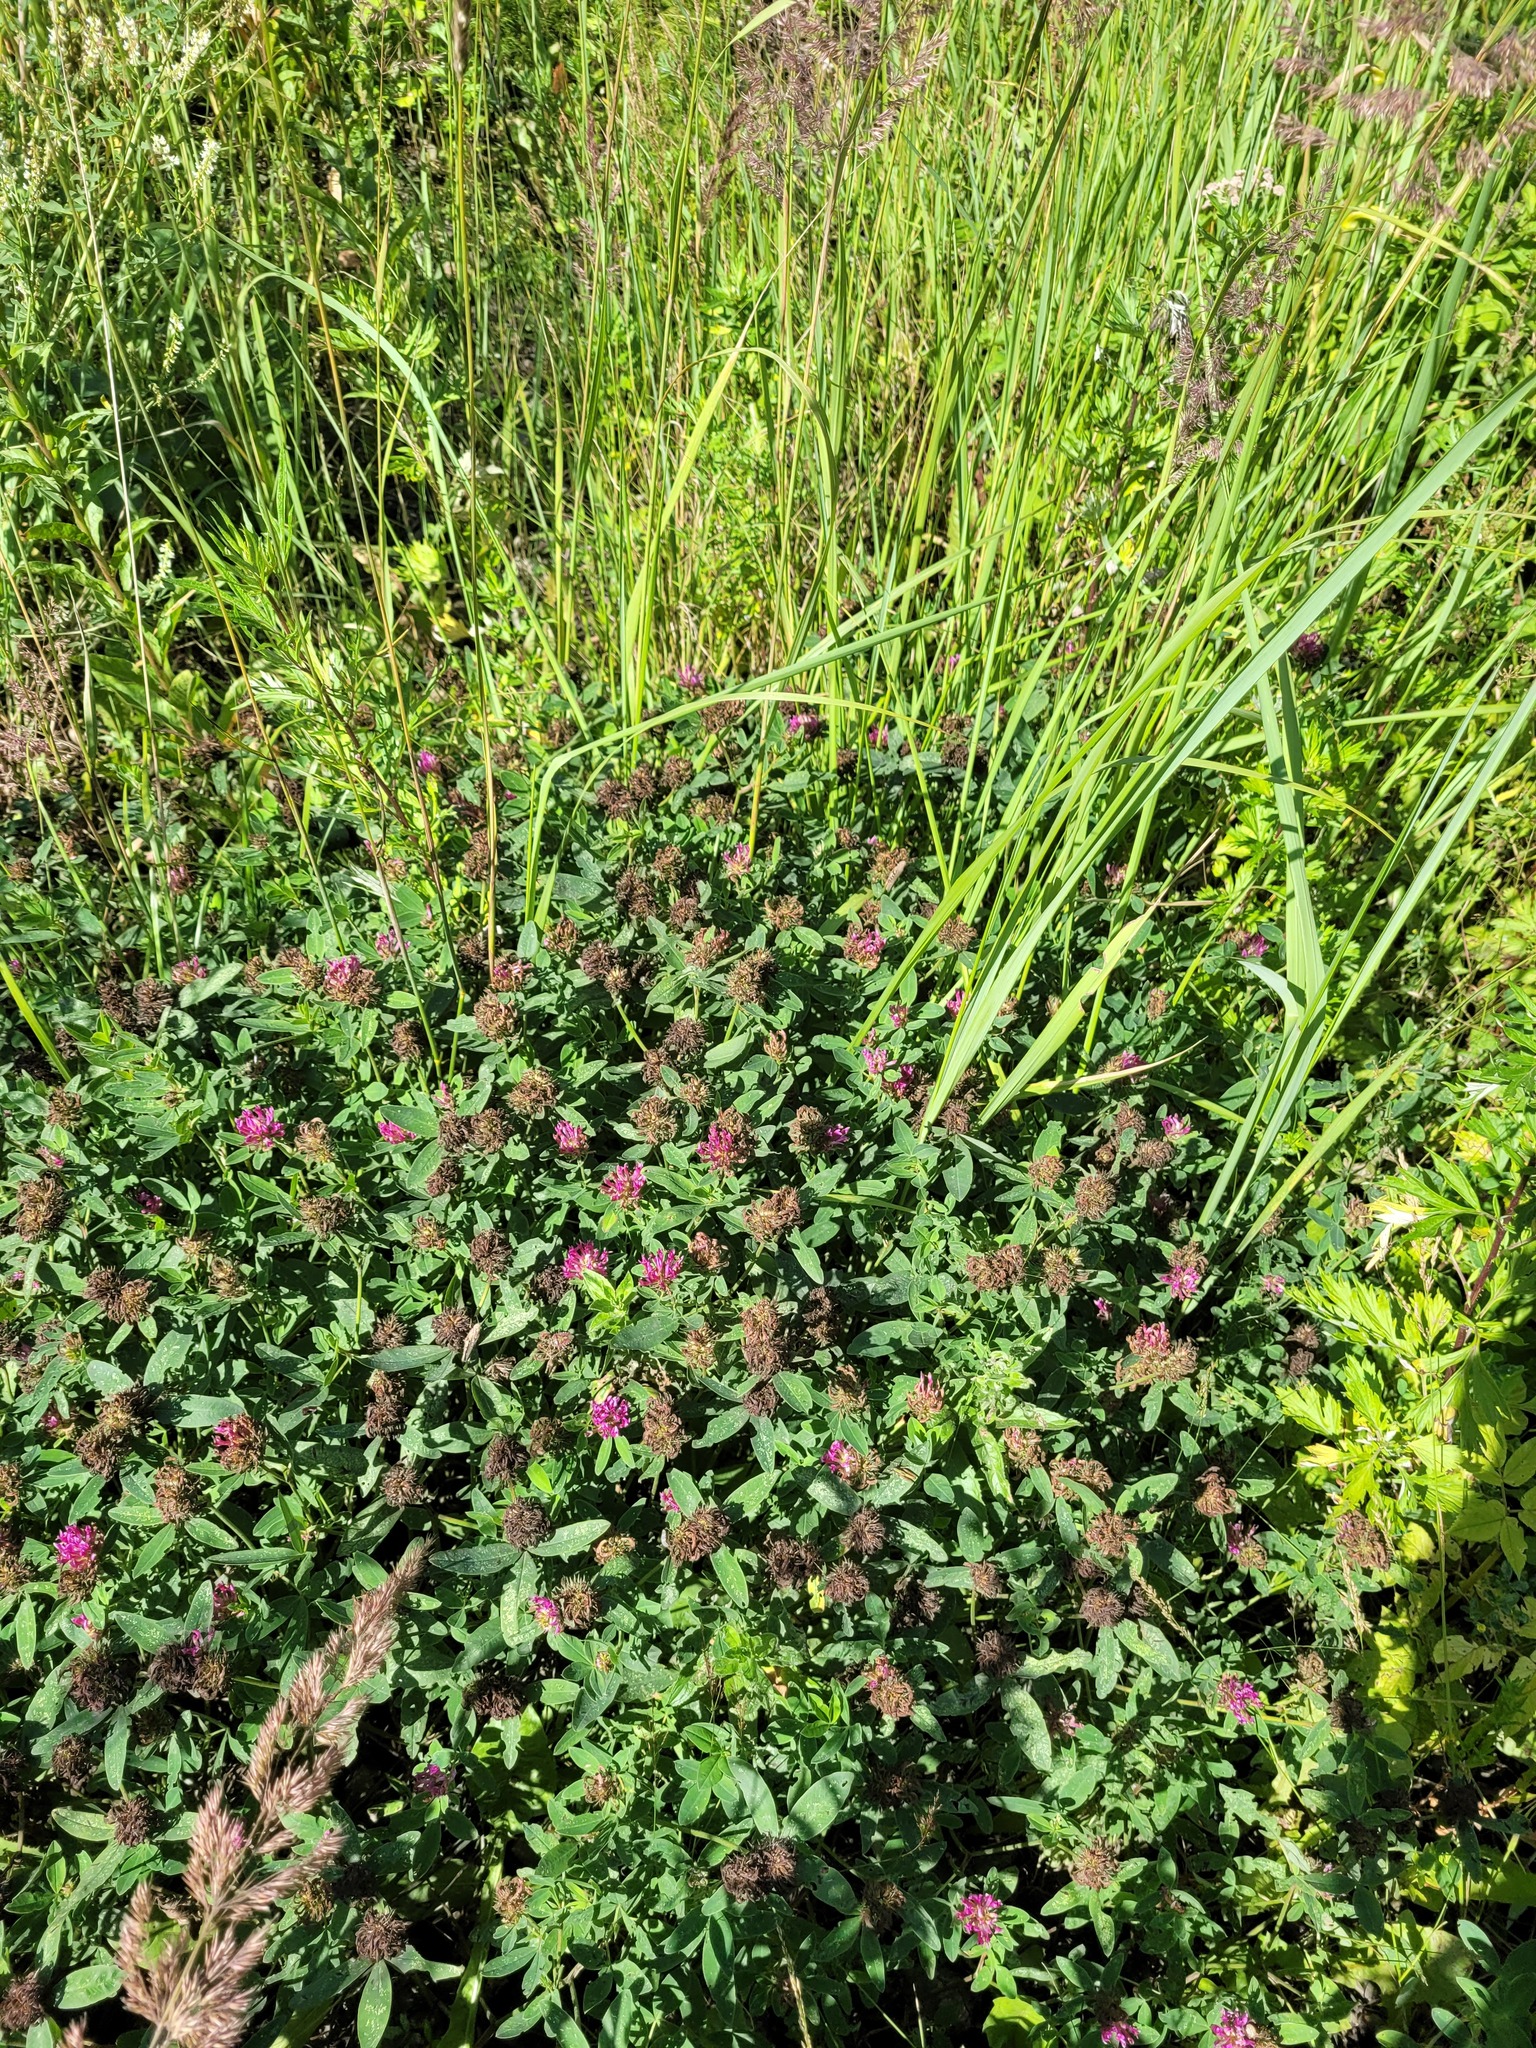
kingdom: Plantae
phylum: Tracheophyta
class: Magnoliopsida
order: Fabales
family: Fabaceae
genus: Trifolium
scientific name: Trifolium medium
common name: Zigzag clover
